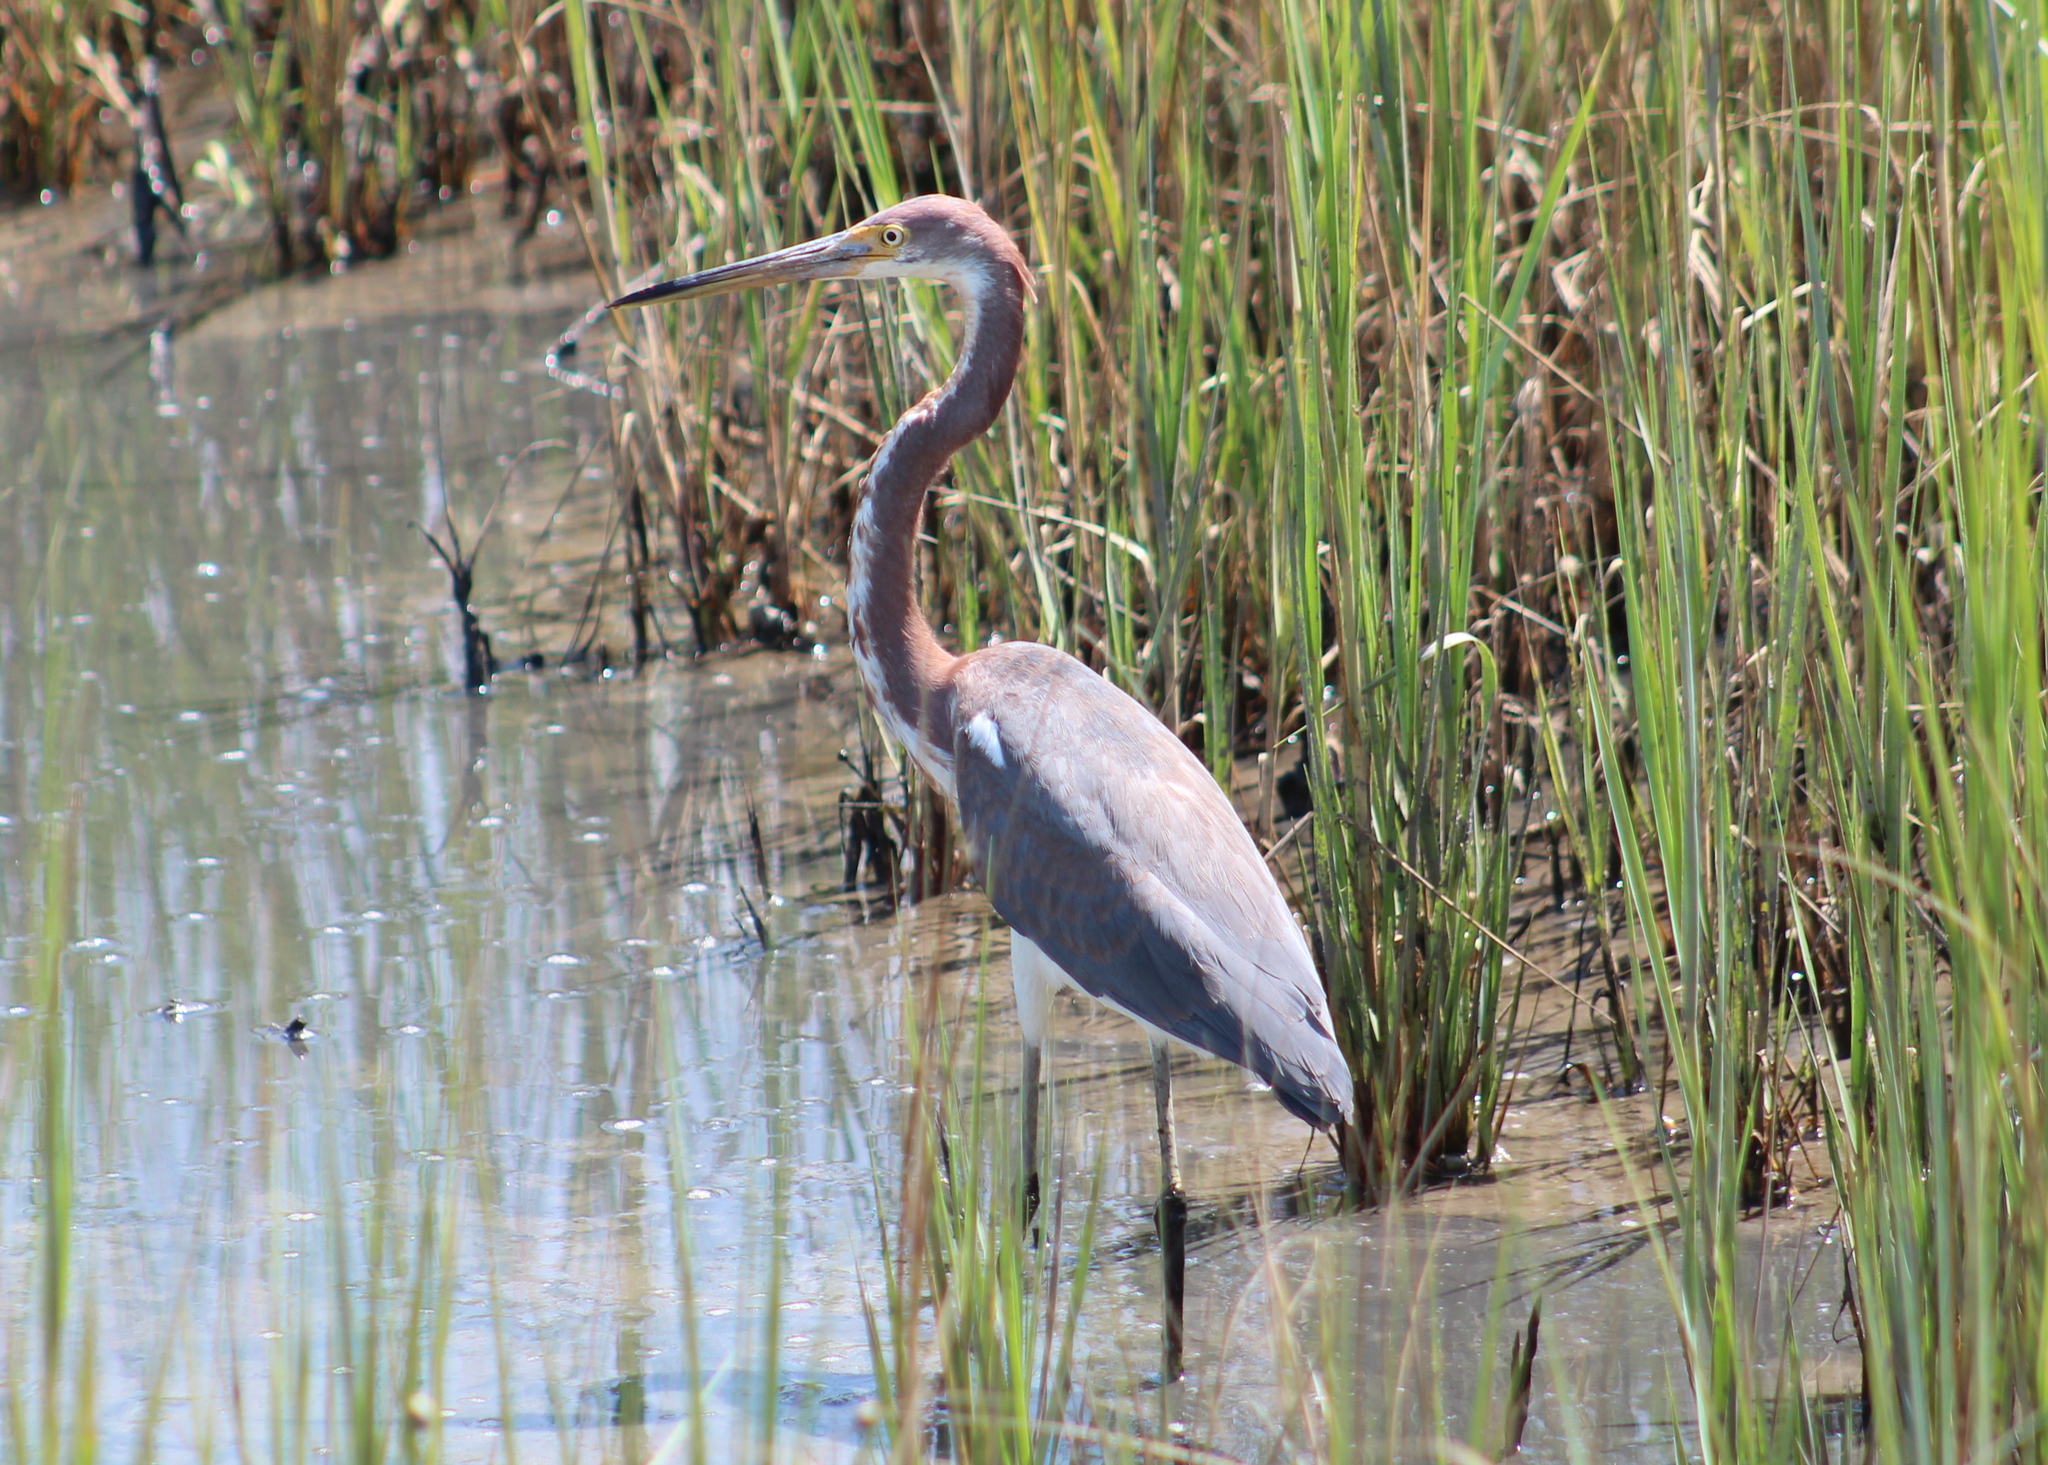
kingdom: Animalia
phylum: Chordata
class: Aves
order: Pelecaniformes
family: Ardeidae
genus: Egretta
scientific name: Egretta tricolor
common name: Tricolored heron
